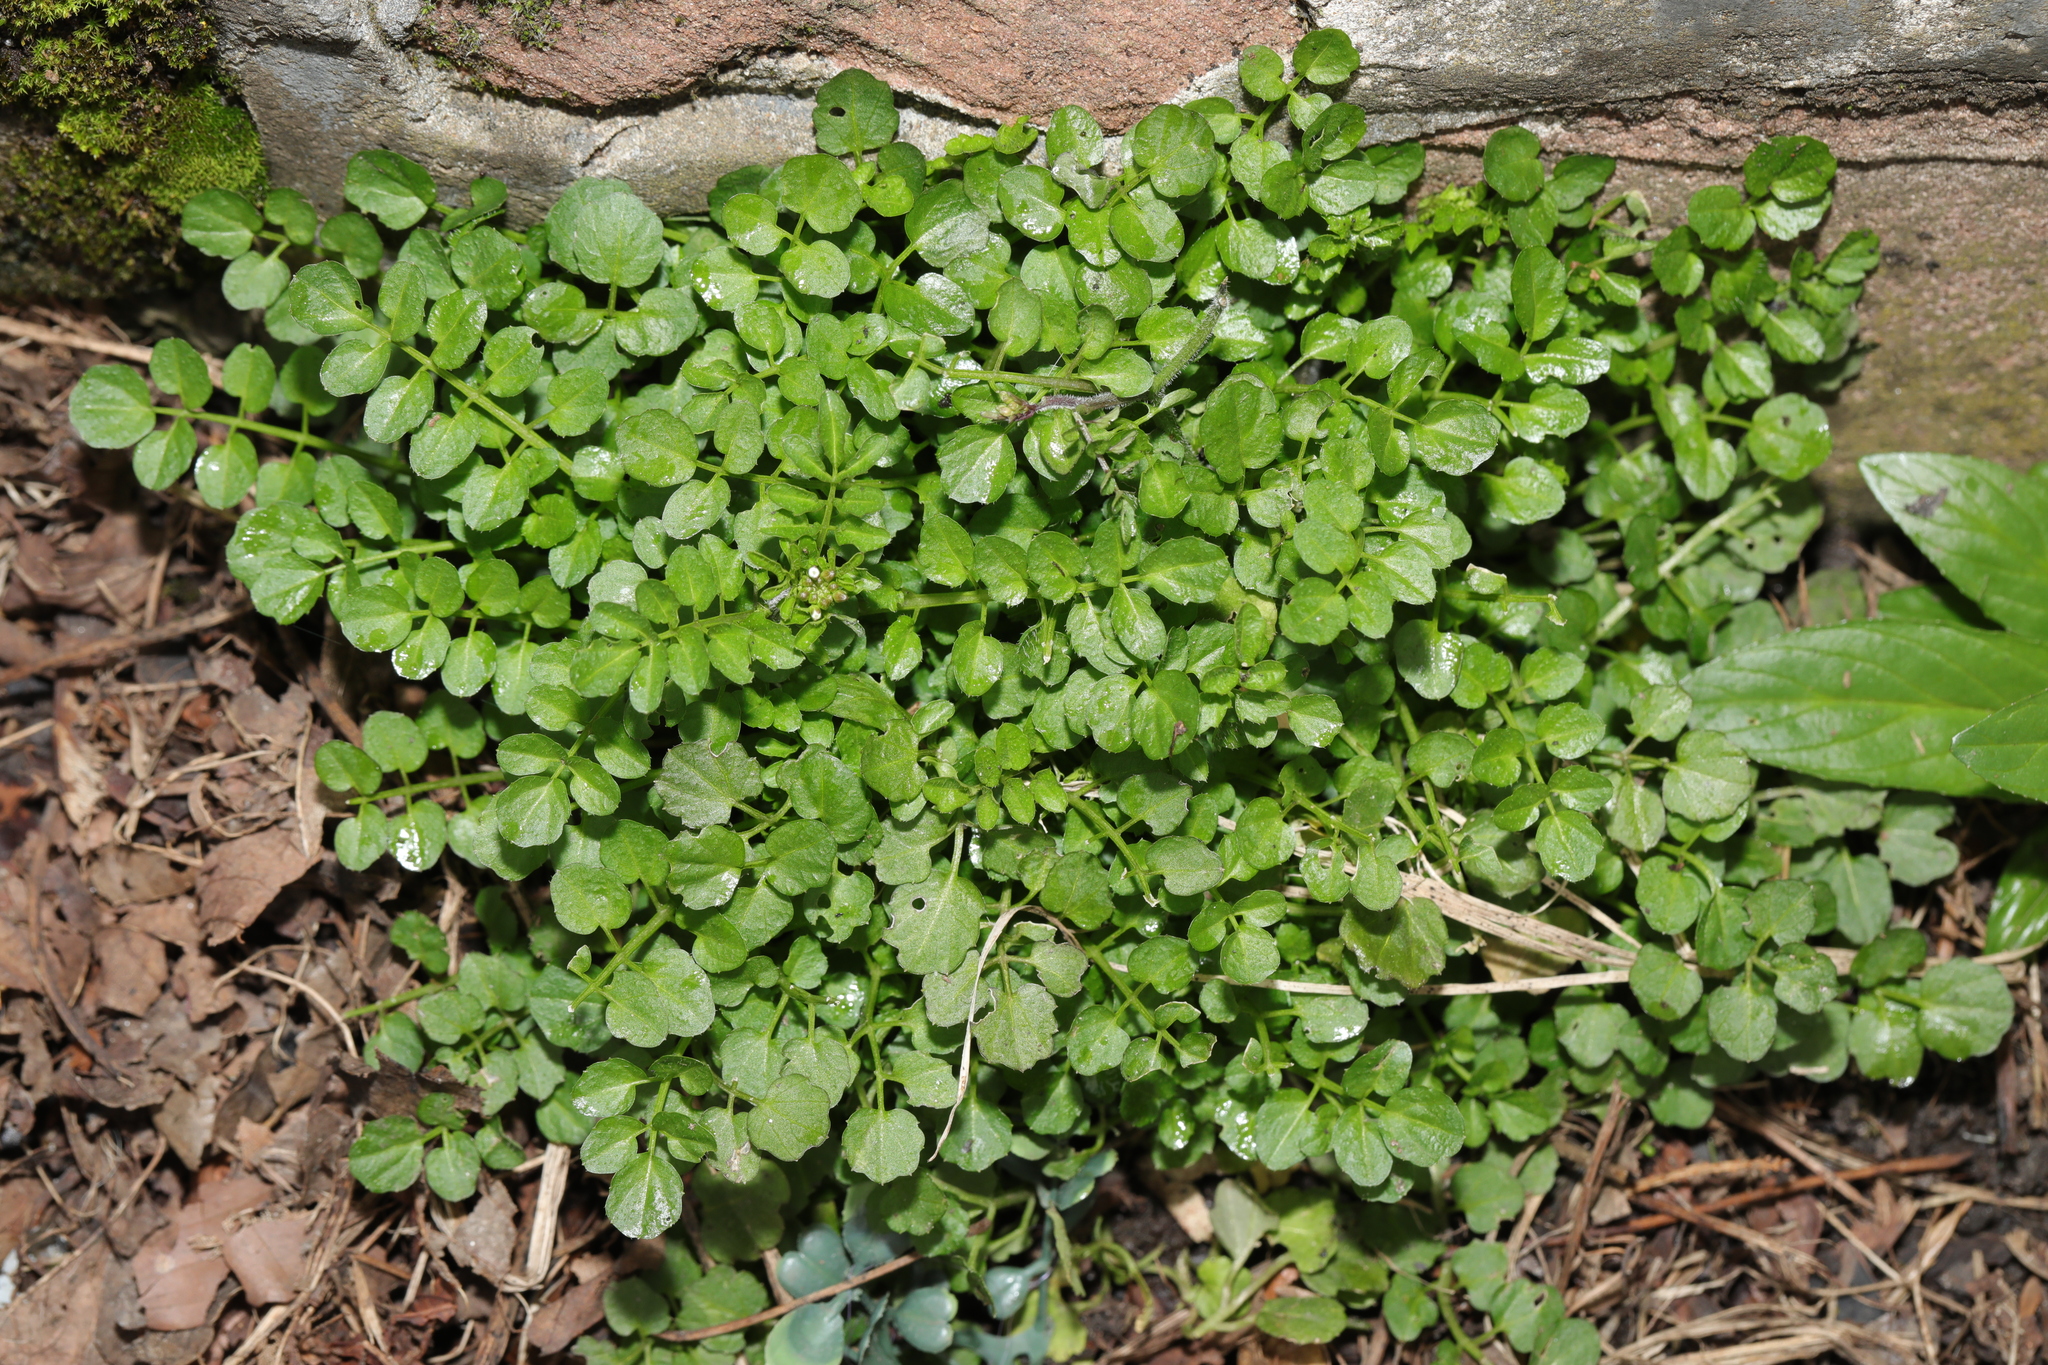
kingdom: Plantae
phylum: Tracheophyta
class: Magnoliopsida
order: Brassicales
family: Brassicaceae
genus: Cardamine
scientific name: Cardamine flexuosa
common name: Woodland bittercress
